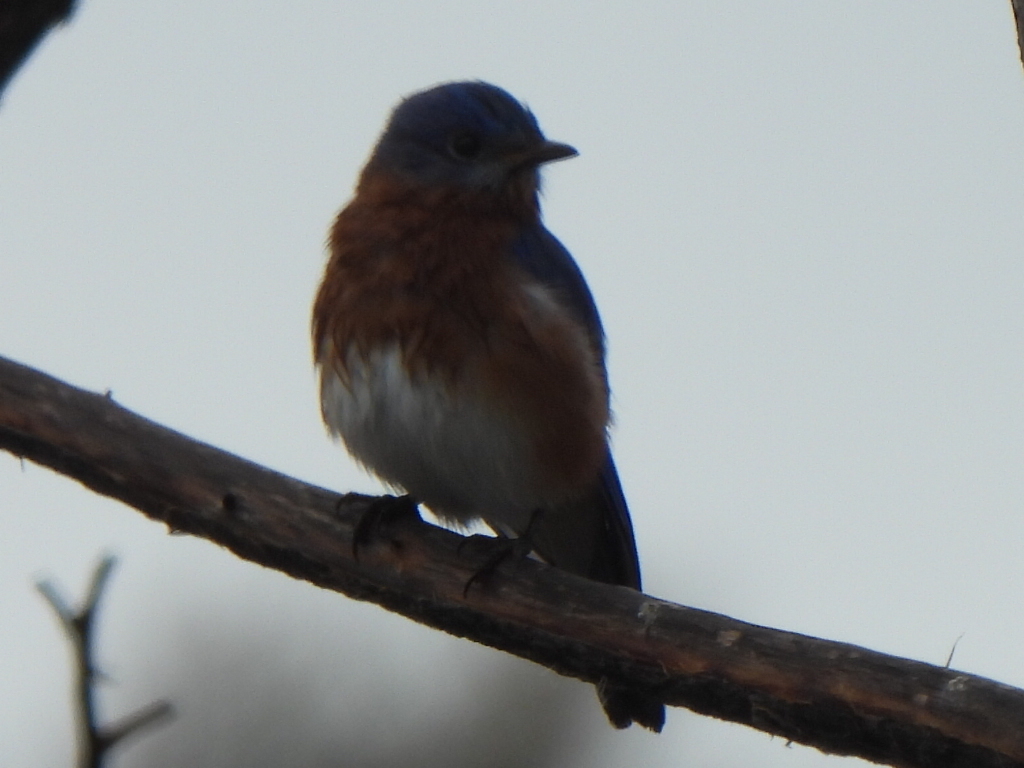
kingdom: Animalia
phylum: Chordata
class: Aves
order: Passeriformes
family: Turdidae
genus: Sialia
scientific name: Sialia sialis
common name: Eastern bluebird
